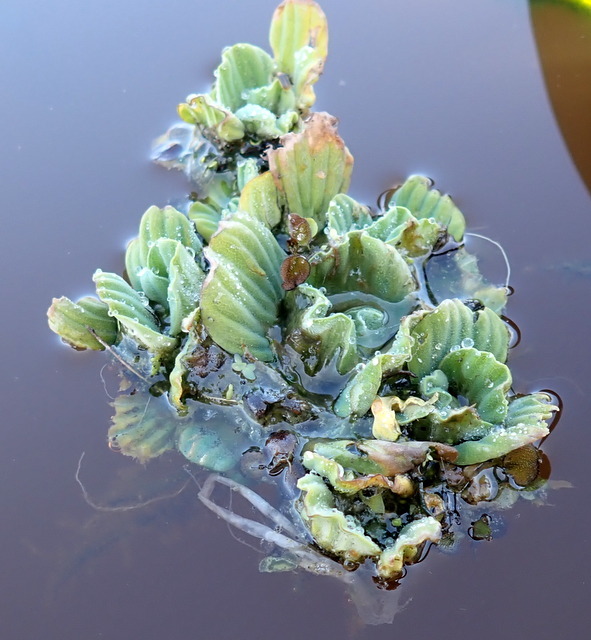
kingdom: Plantae
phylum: Tracheophyta
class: Liliopsida
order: Alismatales
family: Araceae
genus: Pistia
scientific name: Pistia stratiotes
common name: Water lettuce
